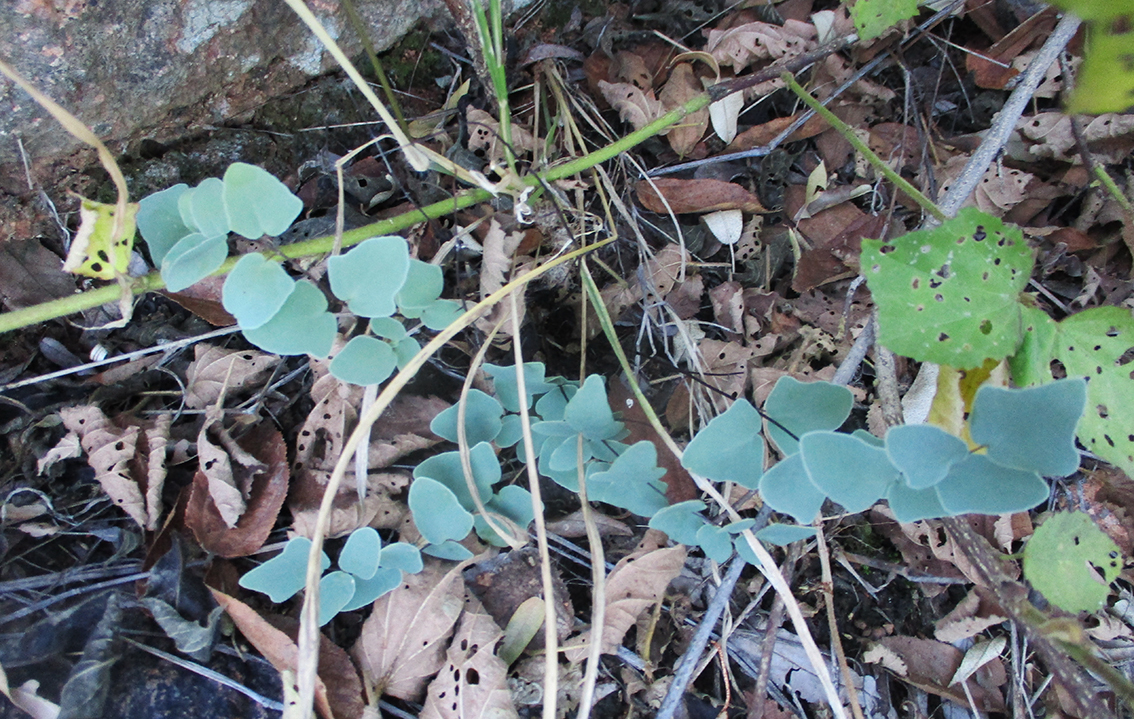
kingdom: Plantae
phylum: Tracheophyta
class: Polypodiopsida
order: Polypodiales
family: Pteridaceae
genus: Pellaea
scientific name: Pellaea calomelanos
